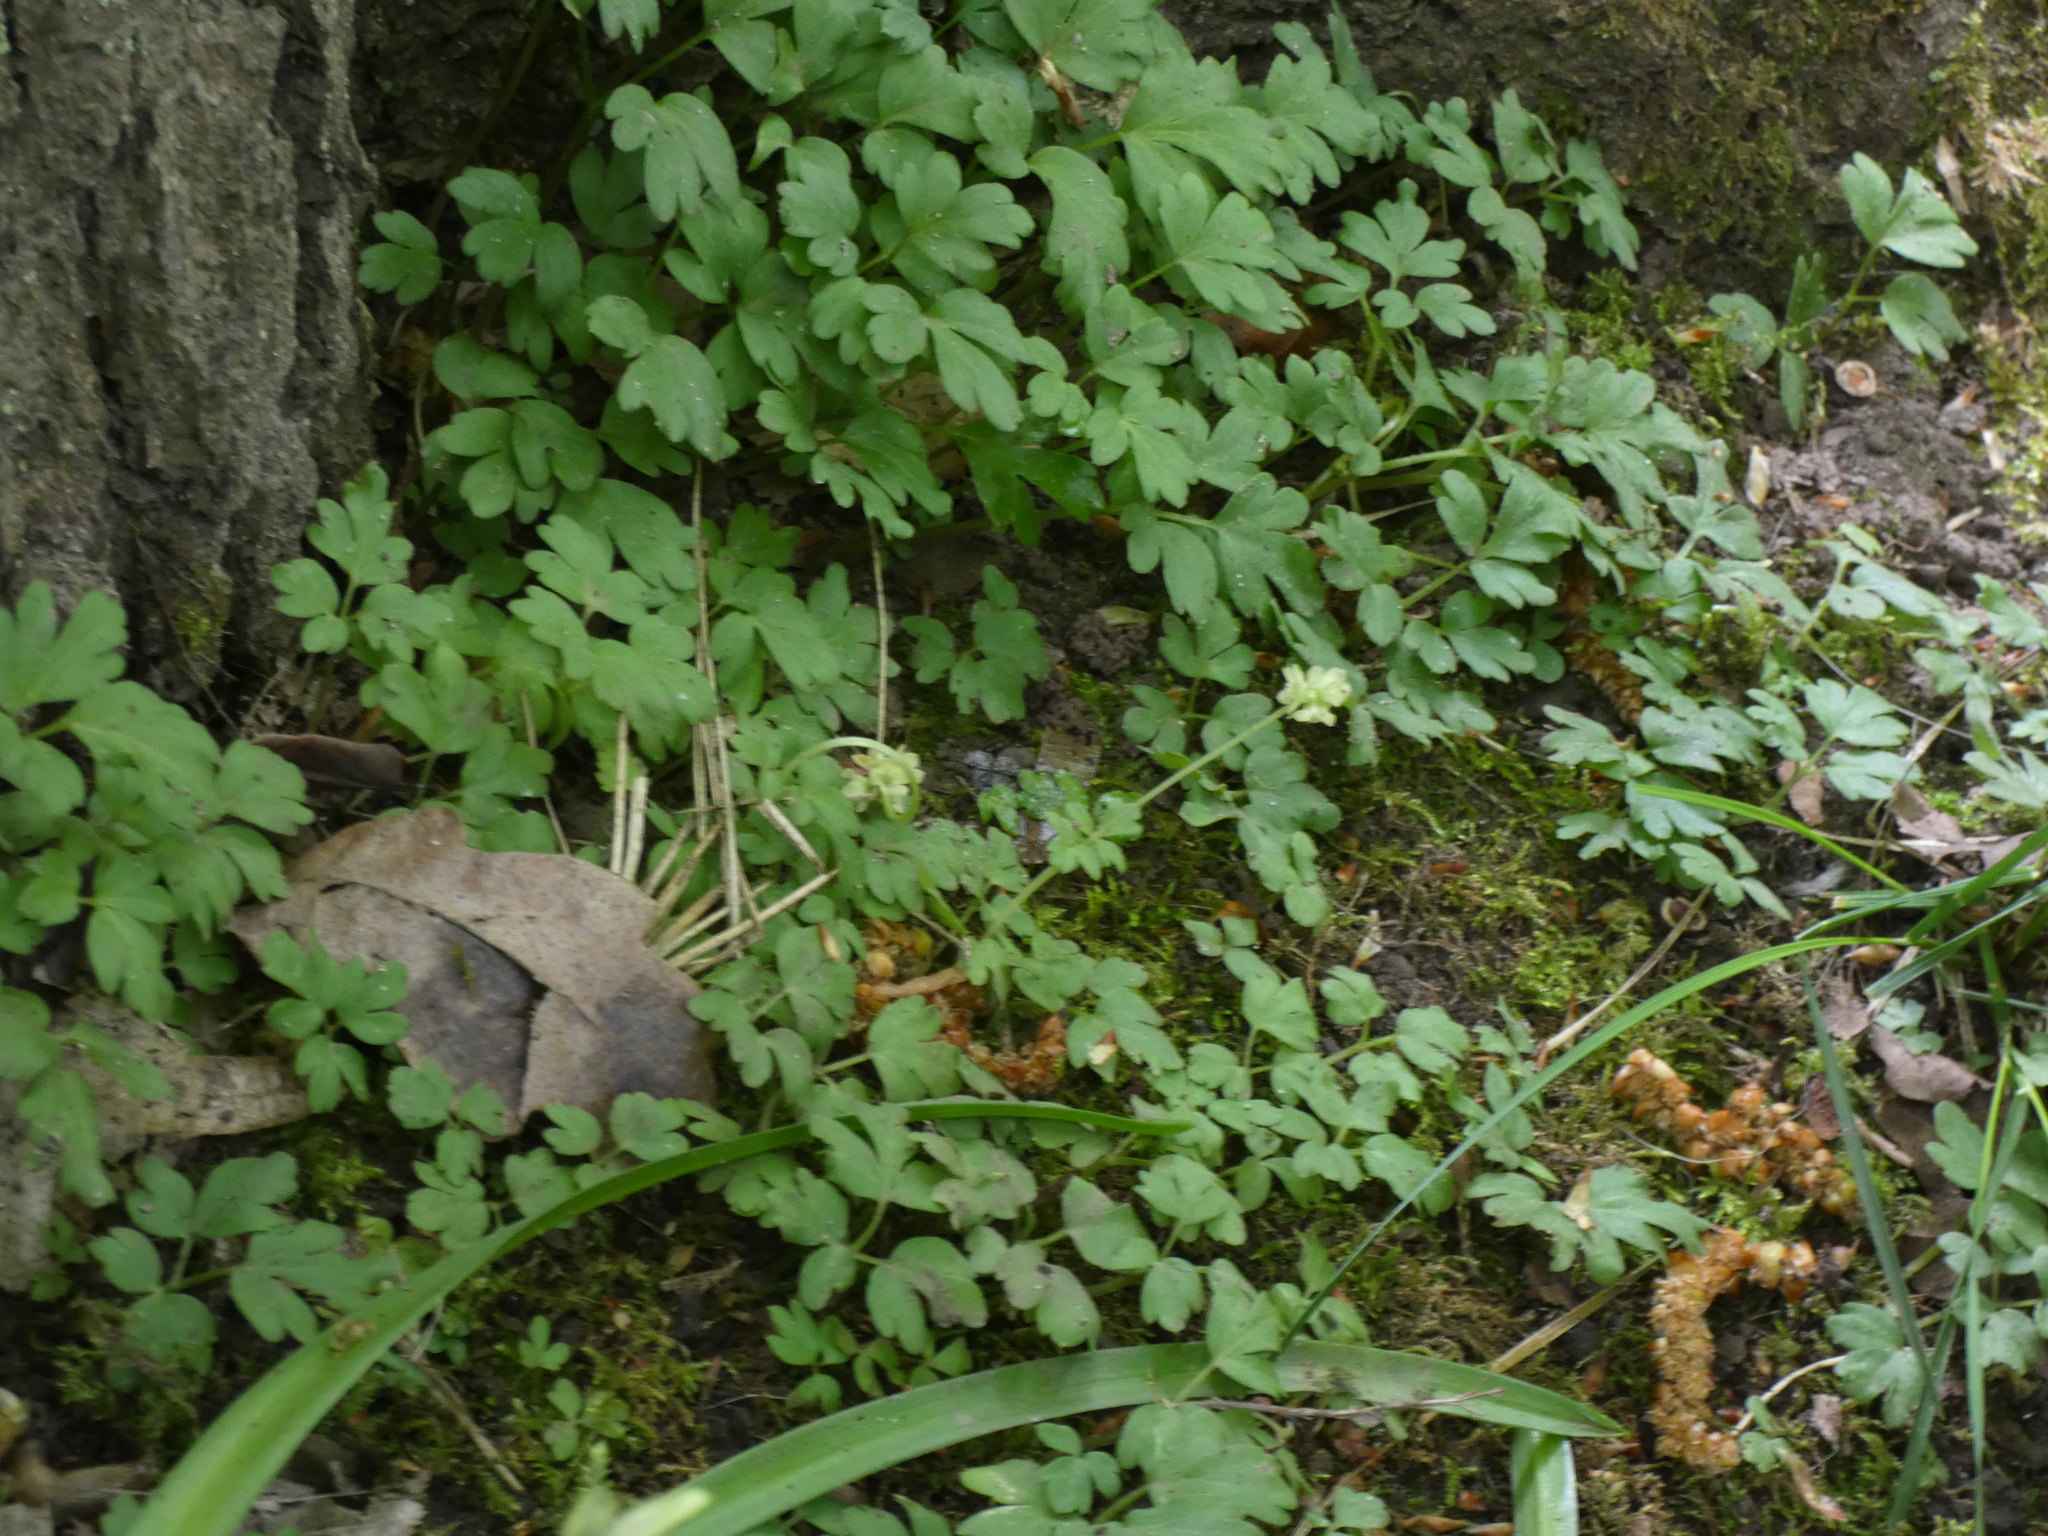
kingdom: Plantae
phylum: Tracheophyta
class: Magnoliopsida
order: Dipsacales
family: Viburnaceae
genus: Adoxa
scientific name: Adoxa moschatellina
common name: Moschatel
